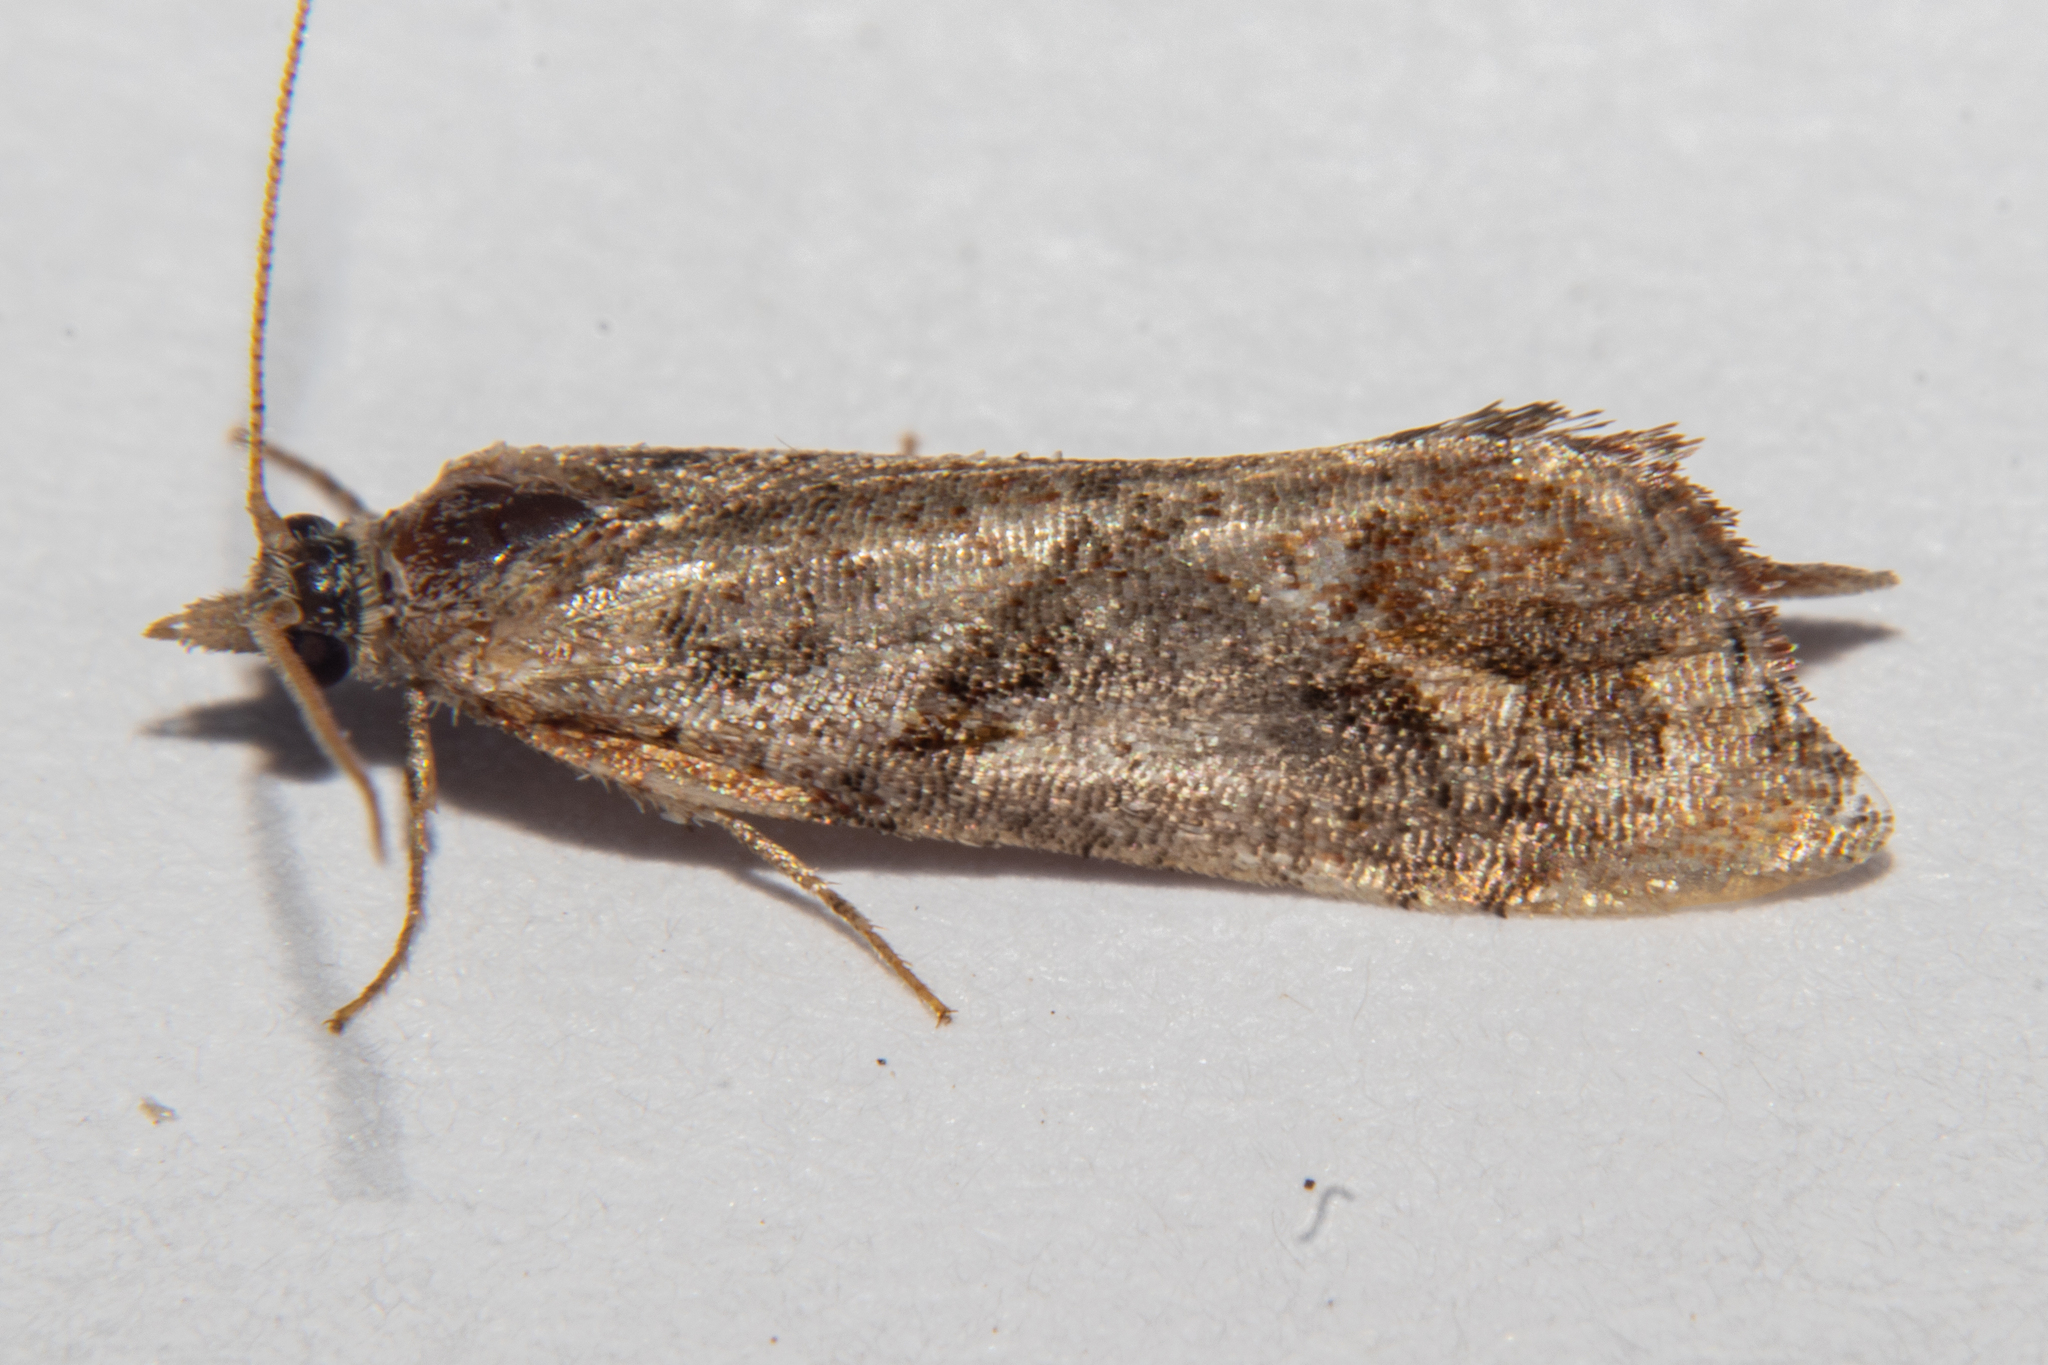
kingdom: Animalia
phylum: Arthropoda
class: Insecta
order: Lepidoptera
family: Tortricidae
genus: Pyrgotis
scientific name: Pyrgotis plagiatana
